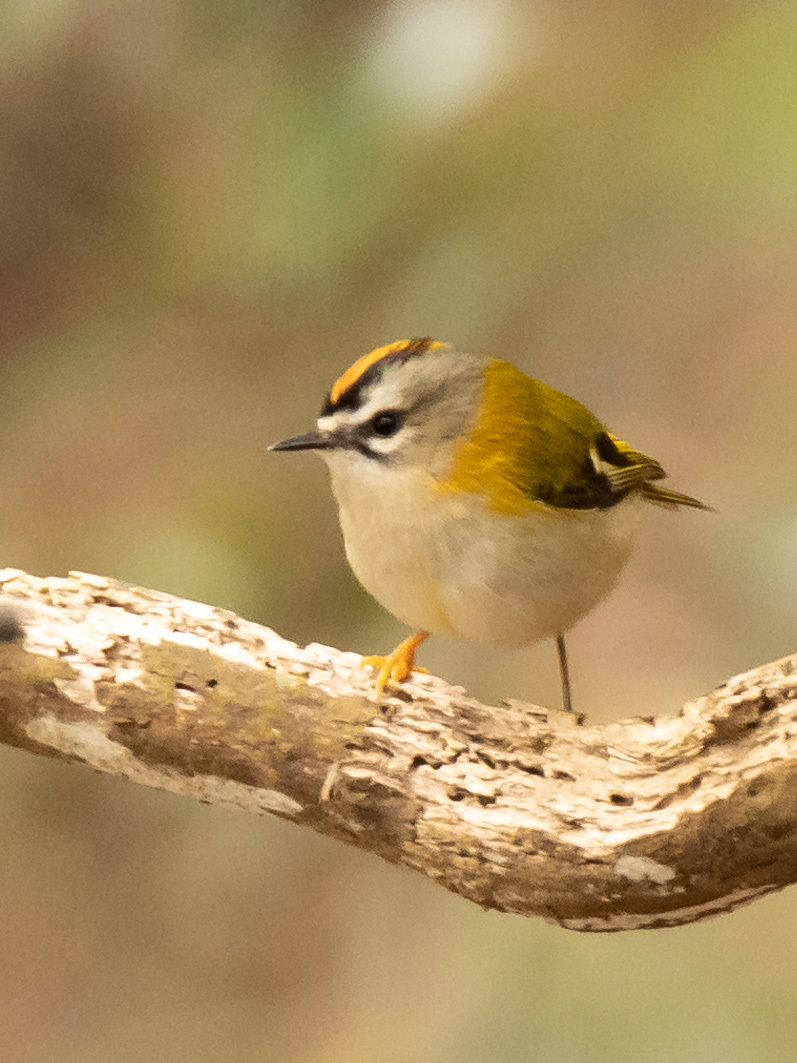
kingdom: Animalia
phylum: Chordata
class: Aves
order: Passeriformes
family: Regulidae
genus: Regulus
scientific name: Regulus madeirensis
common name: Madeira firecrest
